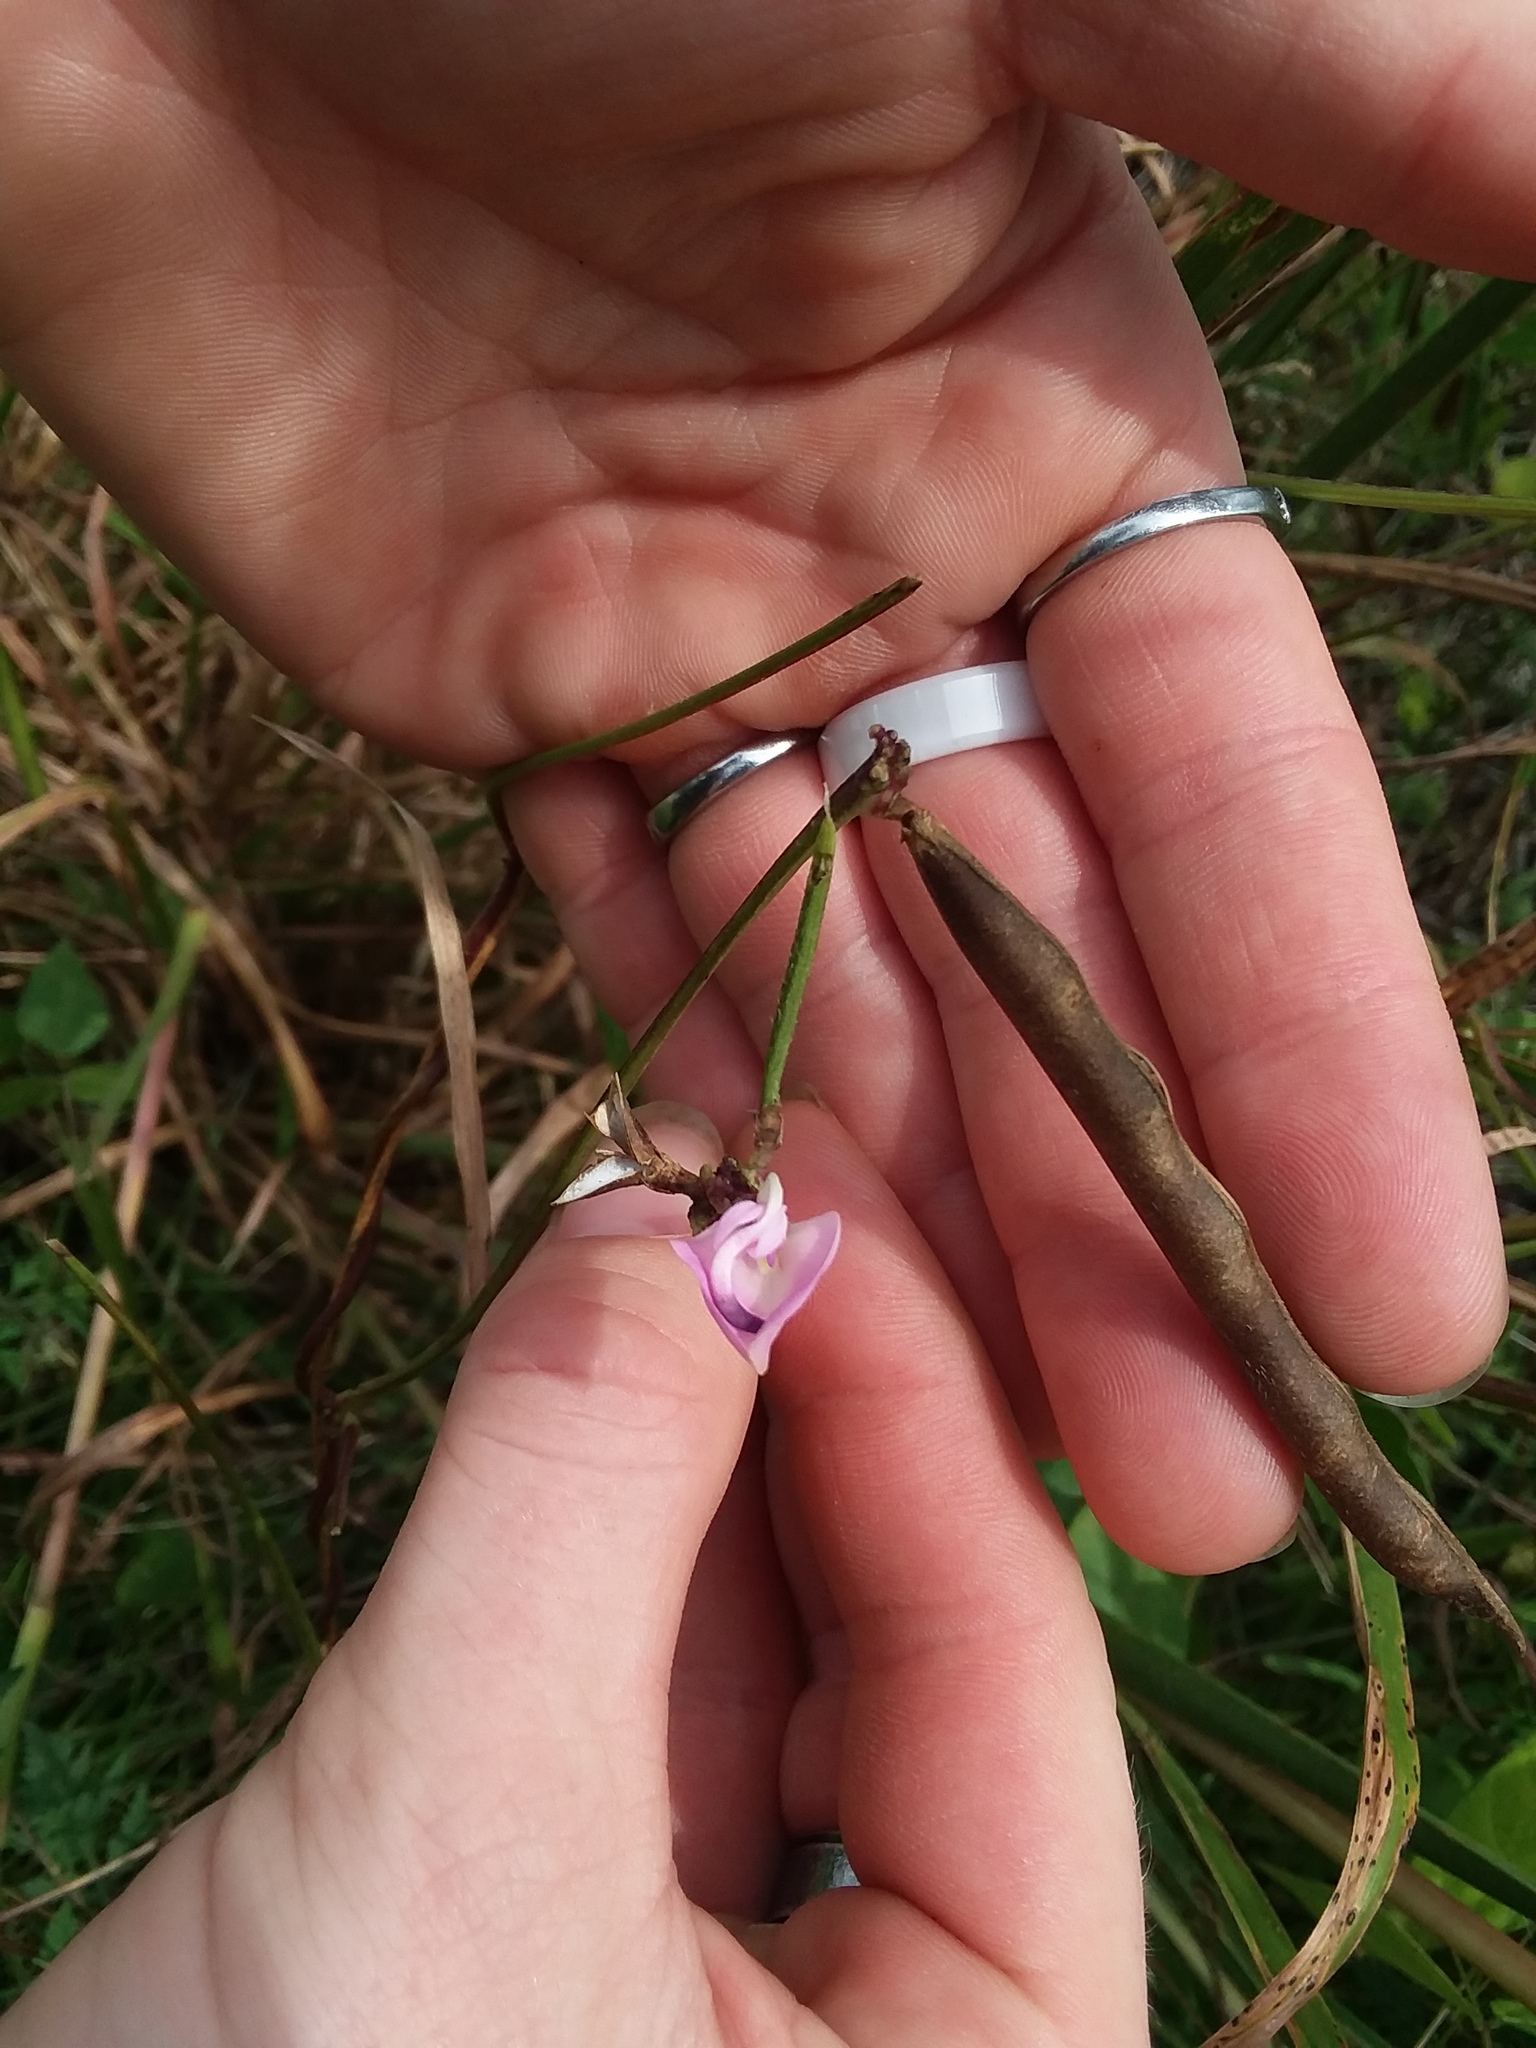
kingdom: Plantae
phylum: Tracheophyta
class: Magnoliopsida
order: Fabales
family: Fabaceae
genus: Strophostyles
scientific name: Strophostyles helvola
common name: Trailing wild bean
